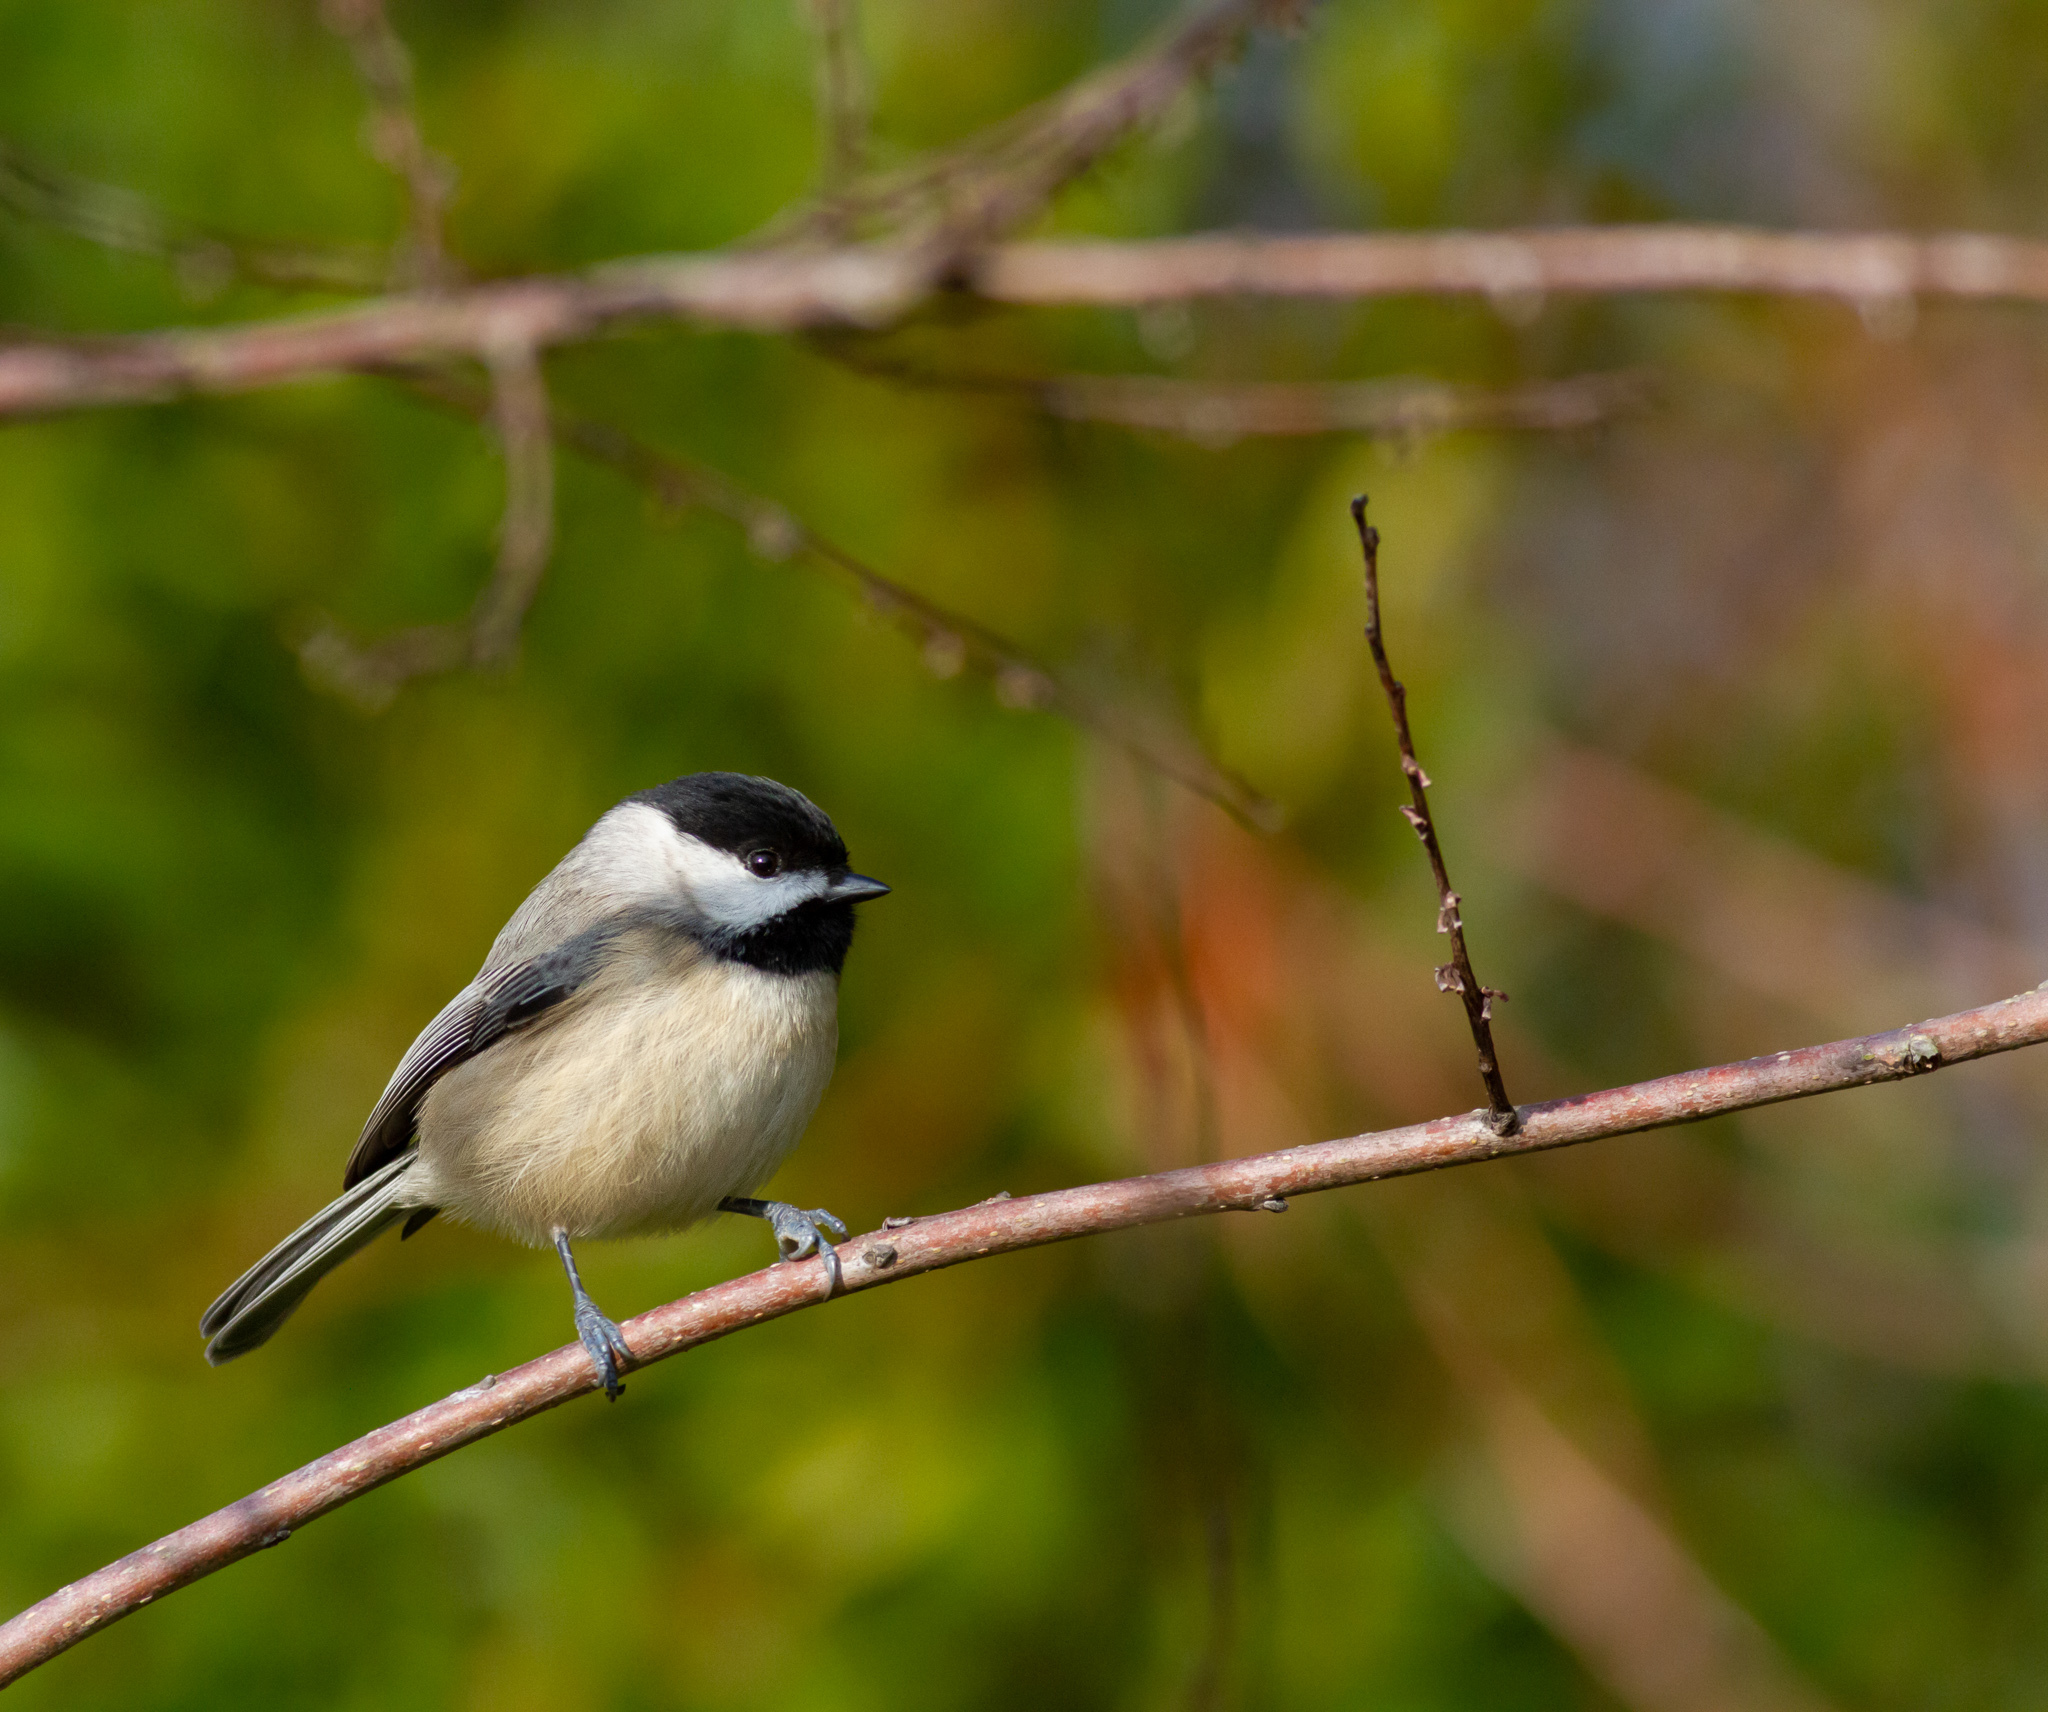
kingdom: Animalia
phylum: Chordata
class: Aves
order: Passeriformes
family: Paridae
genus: Poecile
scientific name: Poecile carolinensis
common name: Carolina chickadee
